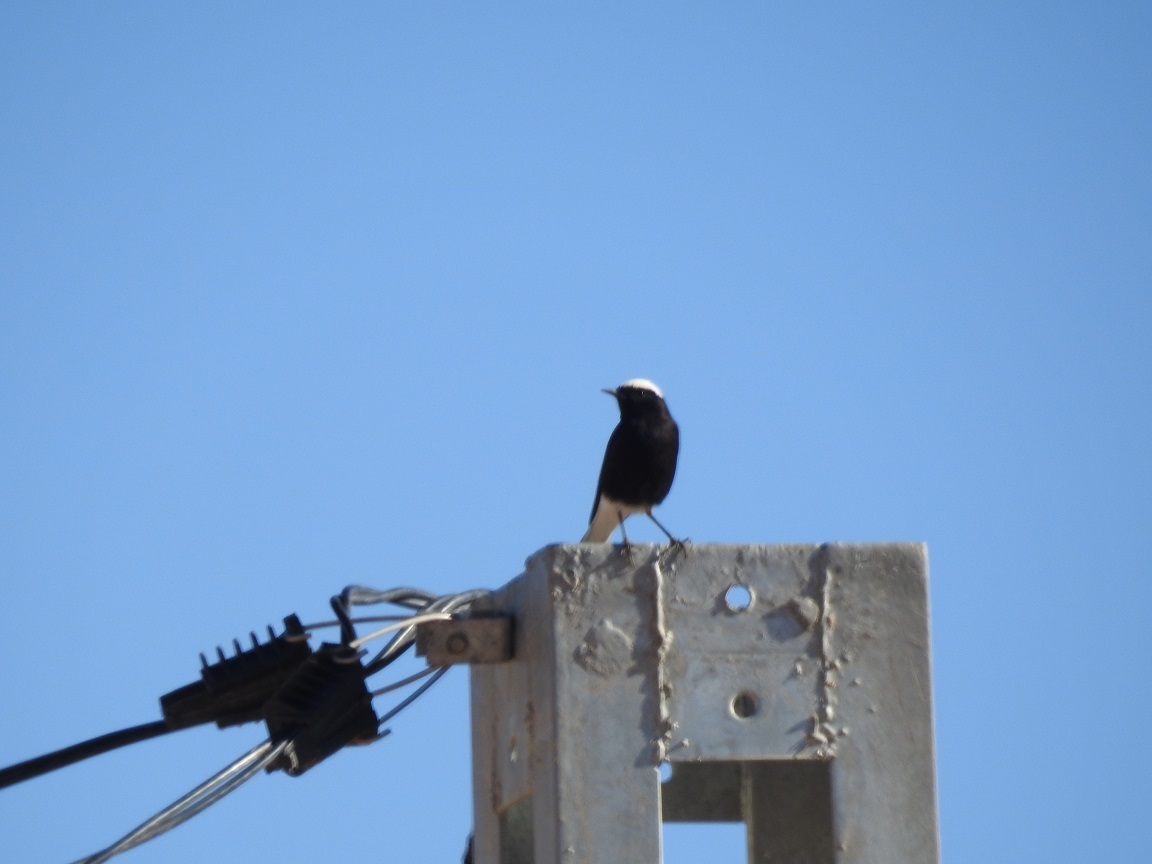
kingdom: Animalia
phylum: Chordata
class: Aves
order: Passeriformes
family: Muscicapidae
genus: Oenanthe
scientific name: Oenanthe leucopyga
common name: White-crowned wheatear
